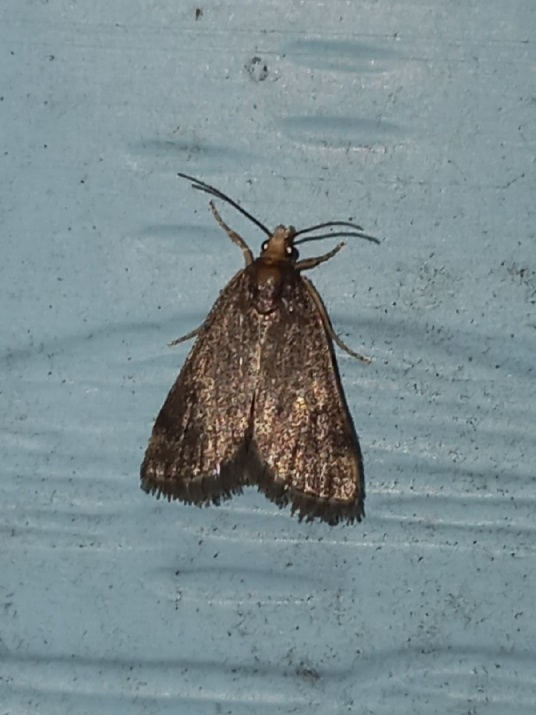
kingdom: Animalia
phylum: Arthropoda
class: Insecta
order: Lepidoptera
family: Crambidae
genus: Pyrausta
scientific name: Pyrausta merrickalis
